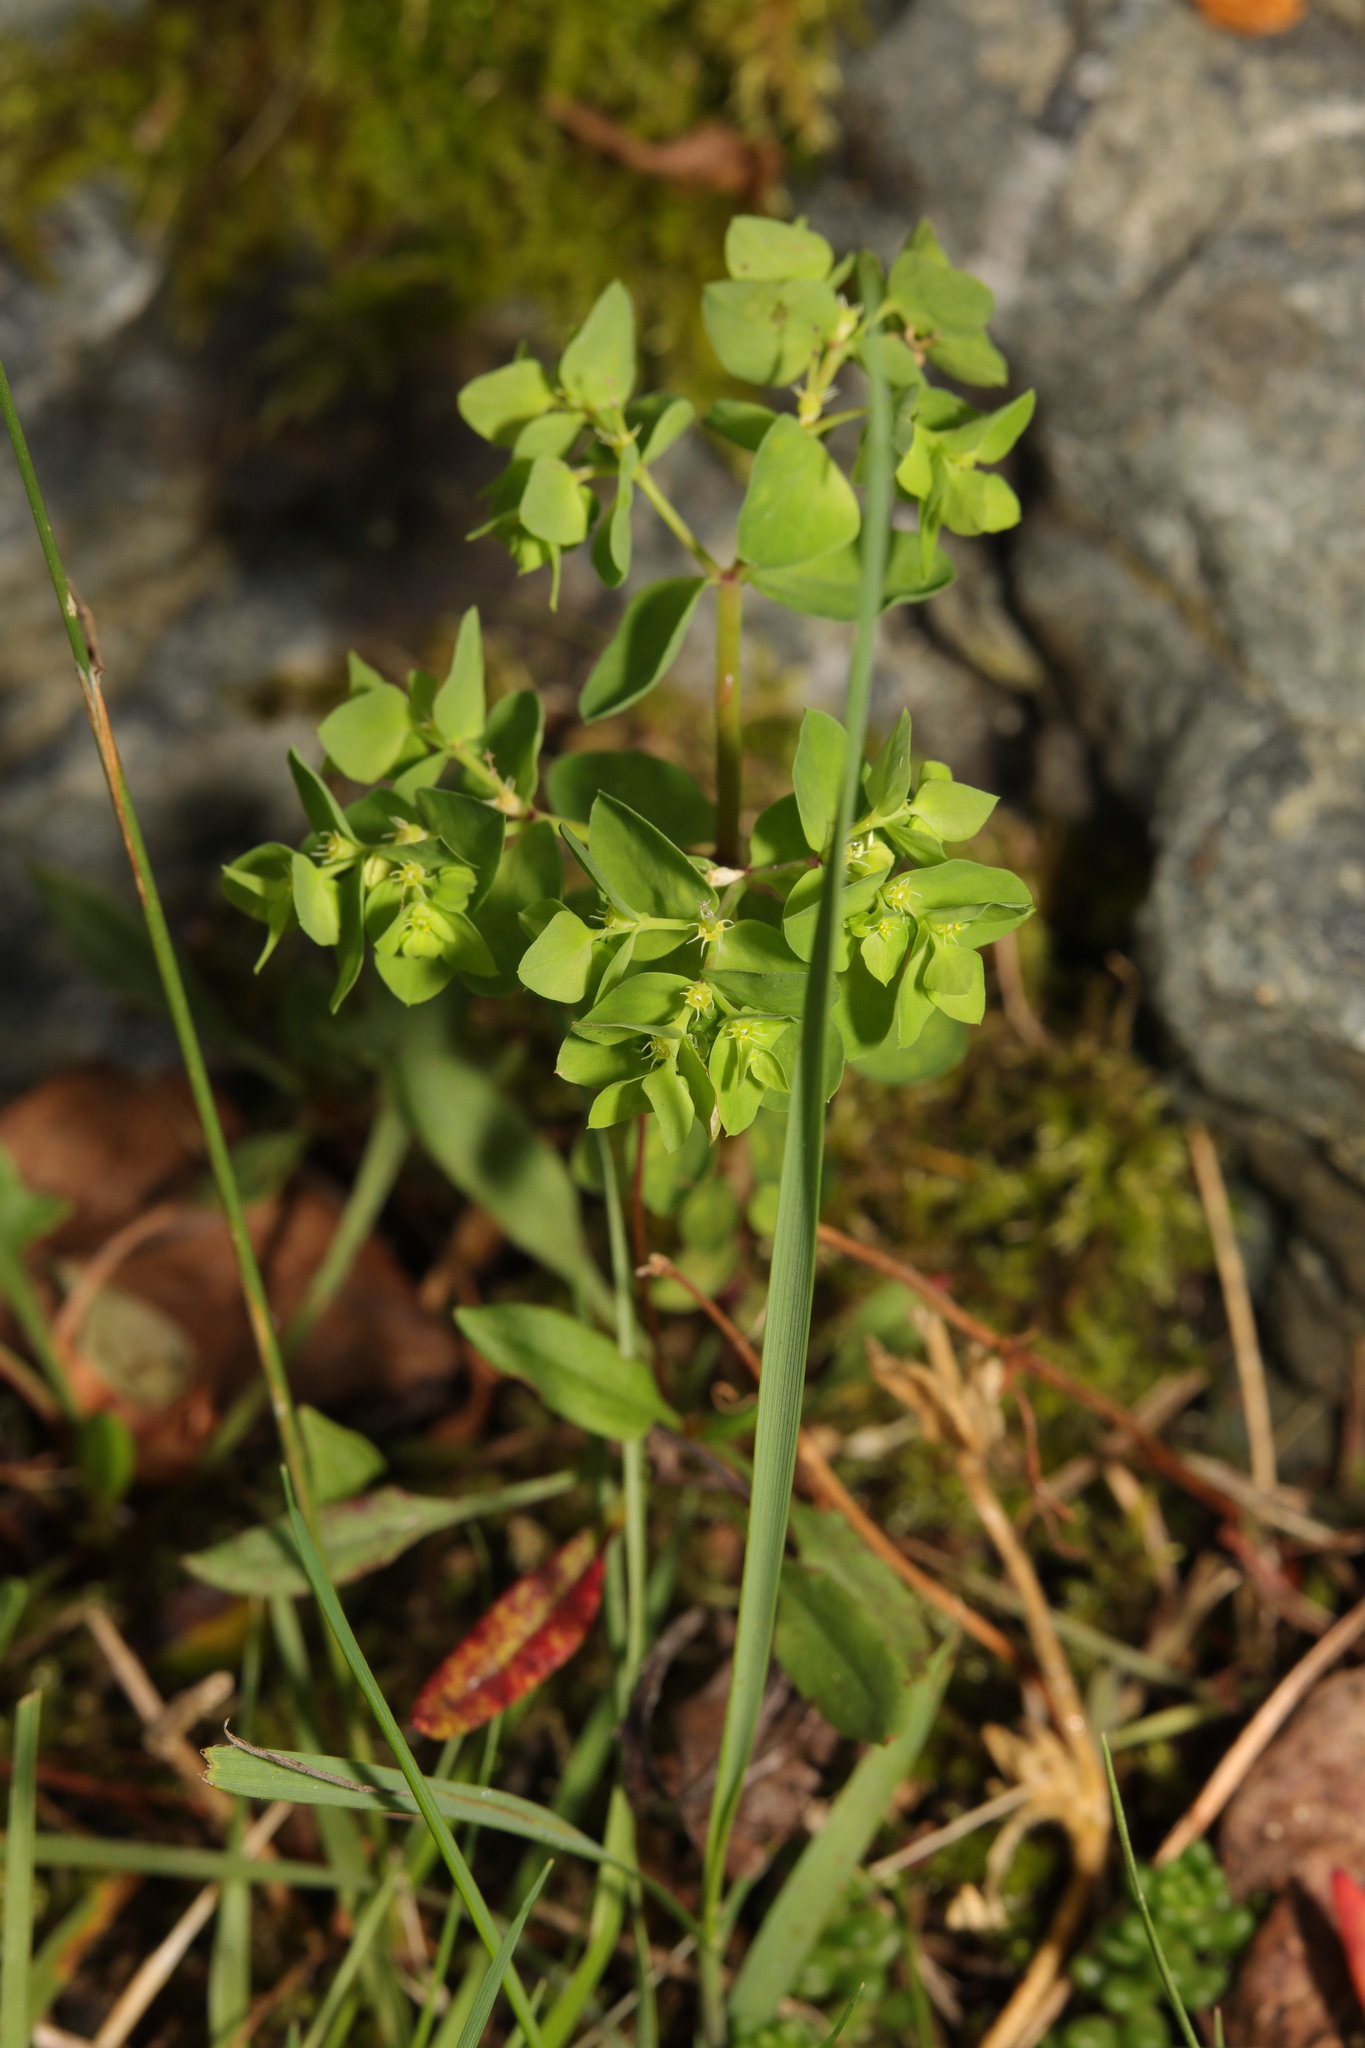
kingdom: Plantae
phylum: Tracheophyta
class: Magnoliopsida
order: Malpighiales
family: Euphorbiaceae
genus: Euphorbia
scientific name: Euphorbia peplus
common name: Petty spurge
